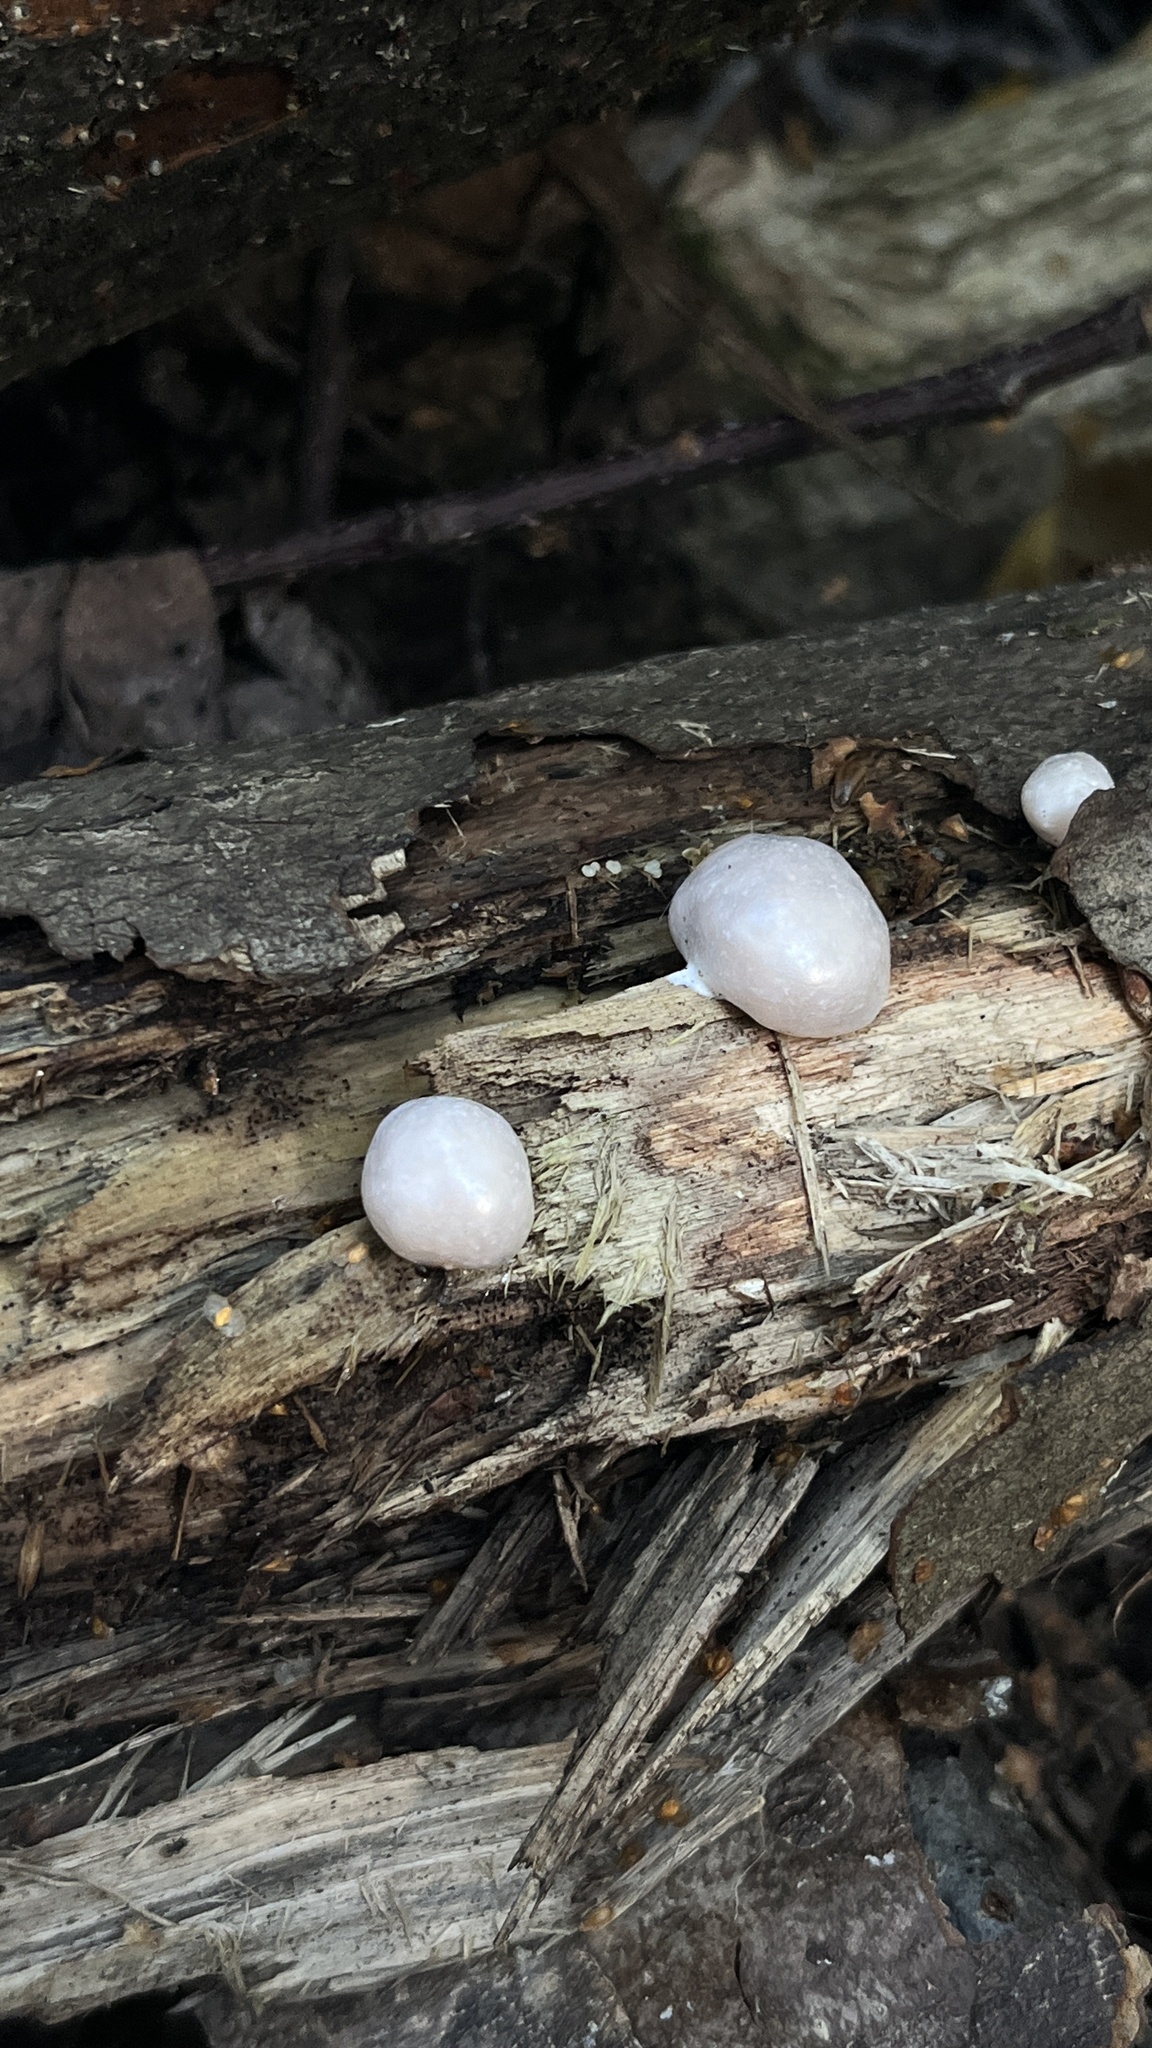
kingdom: Protozoa
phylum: Mycetozoa
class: Myxomycetes
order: Cribrariales
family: Tubiferaceae
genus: Reticularia
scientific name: Reticularia lycoperdon
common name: False puffball
